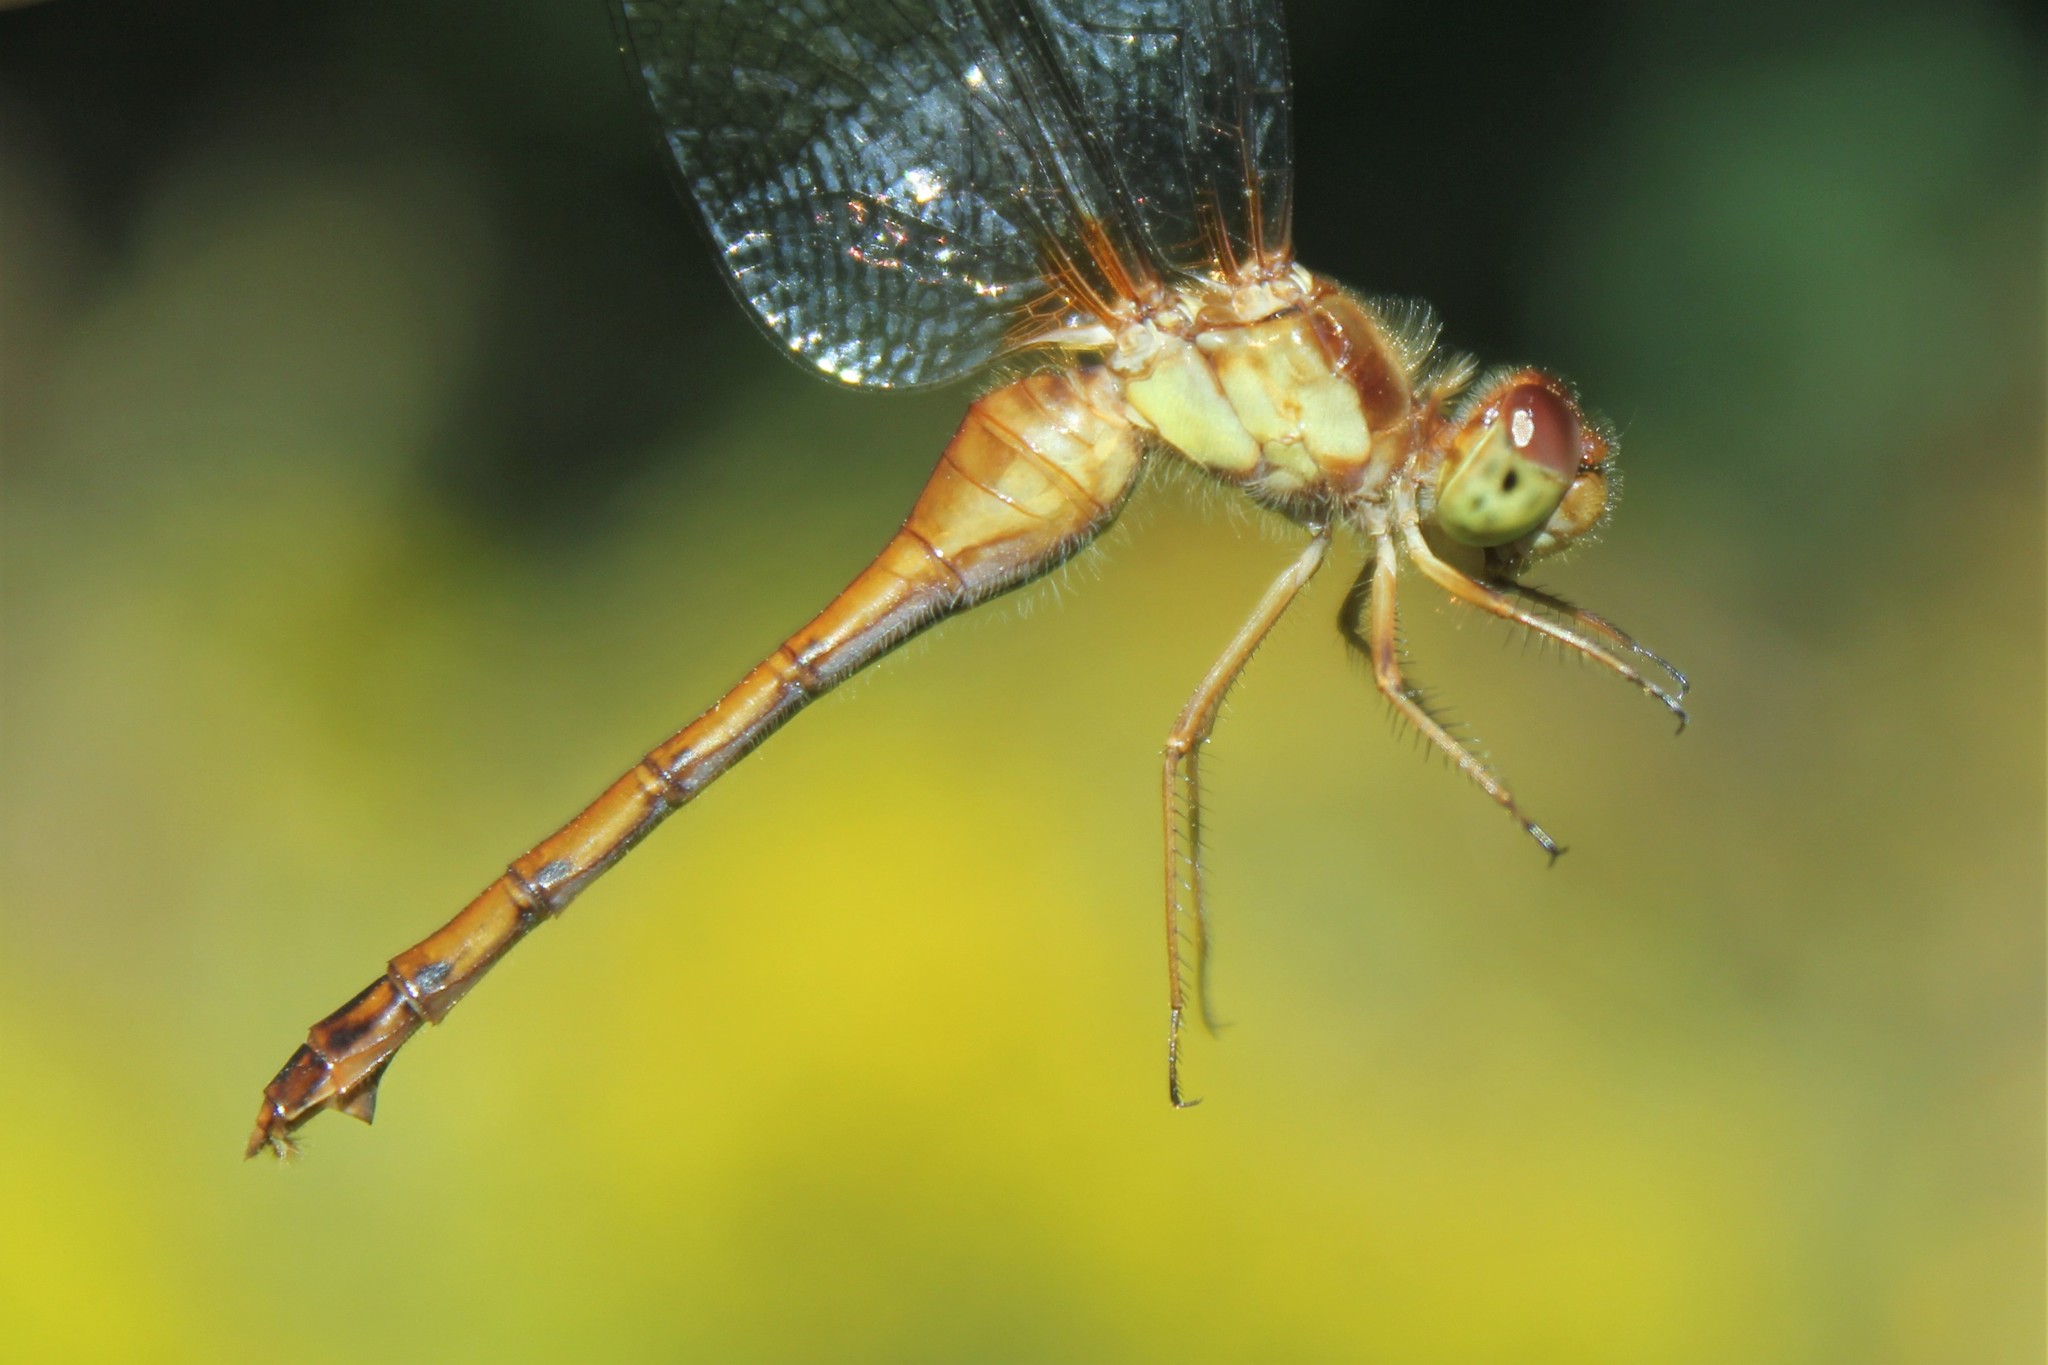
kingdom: Animalia
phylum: Arthropoda
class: Insecta
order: Odonata
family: Libellulidae
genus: Sympetrum
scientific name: Sympetrum vicinum
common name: Autumn meadowhawk
